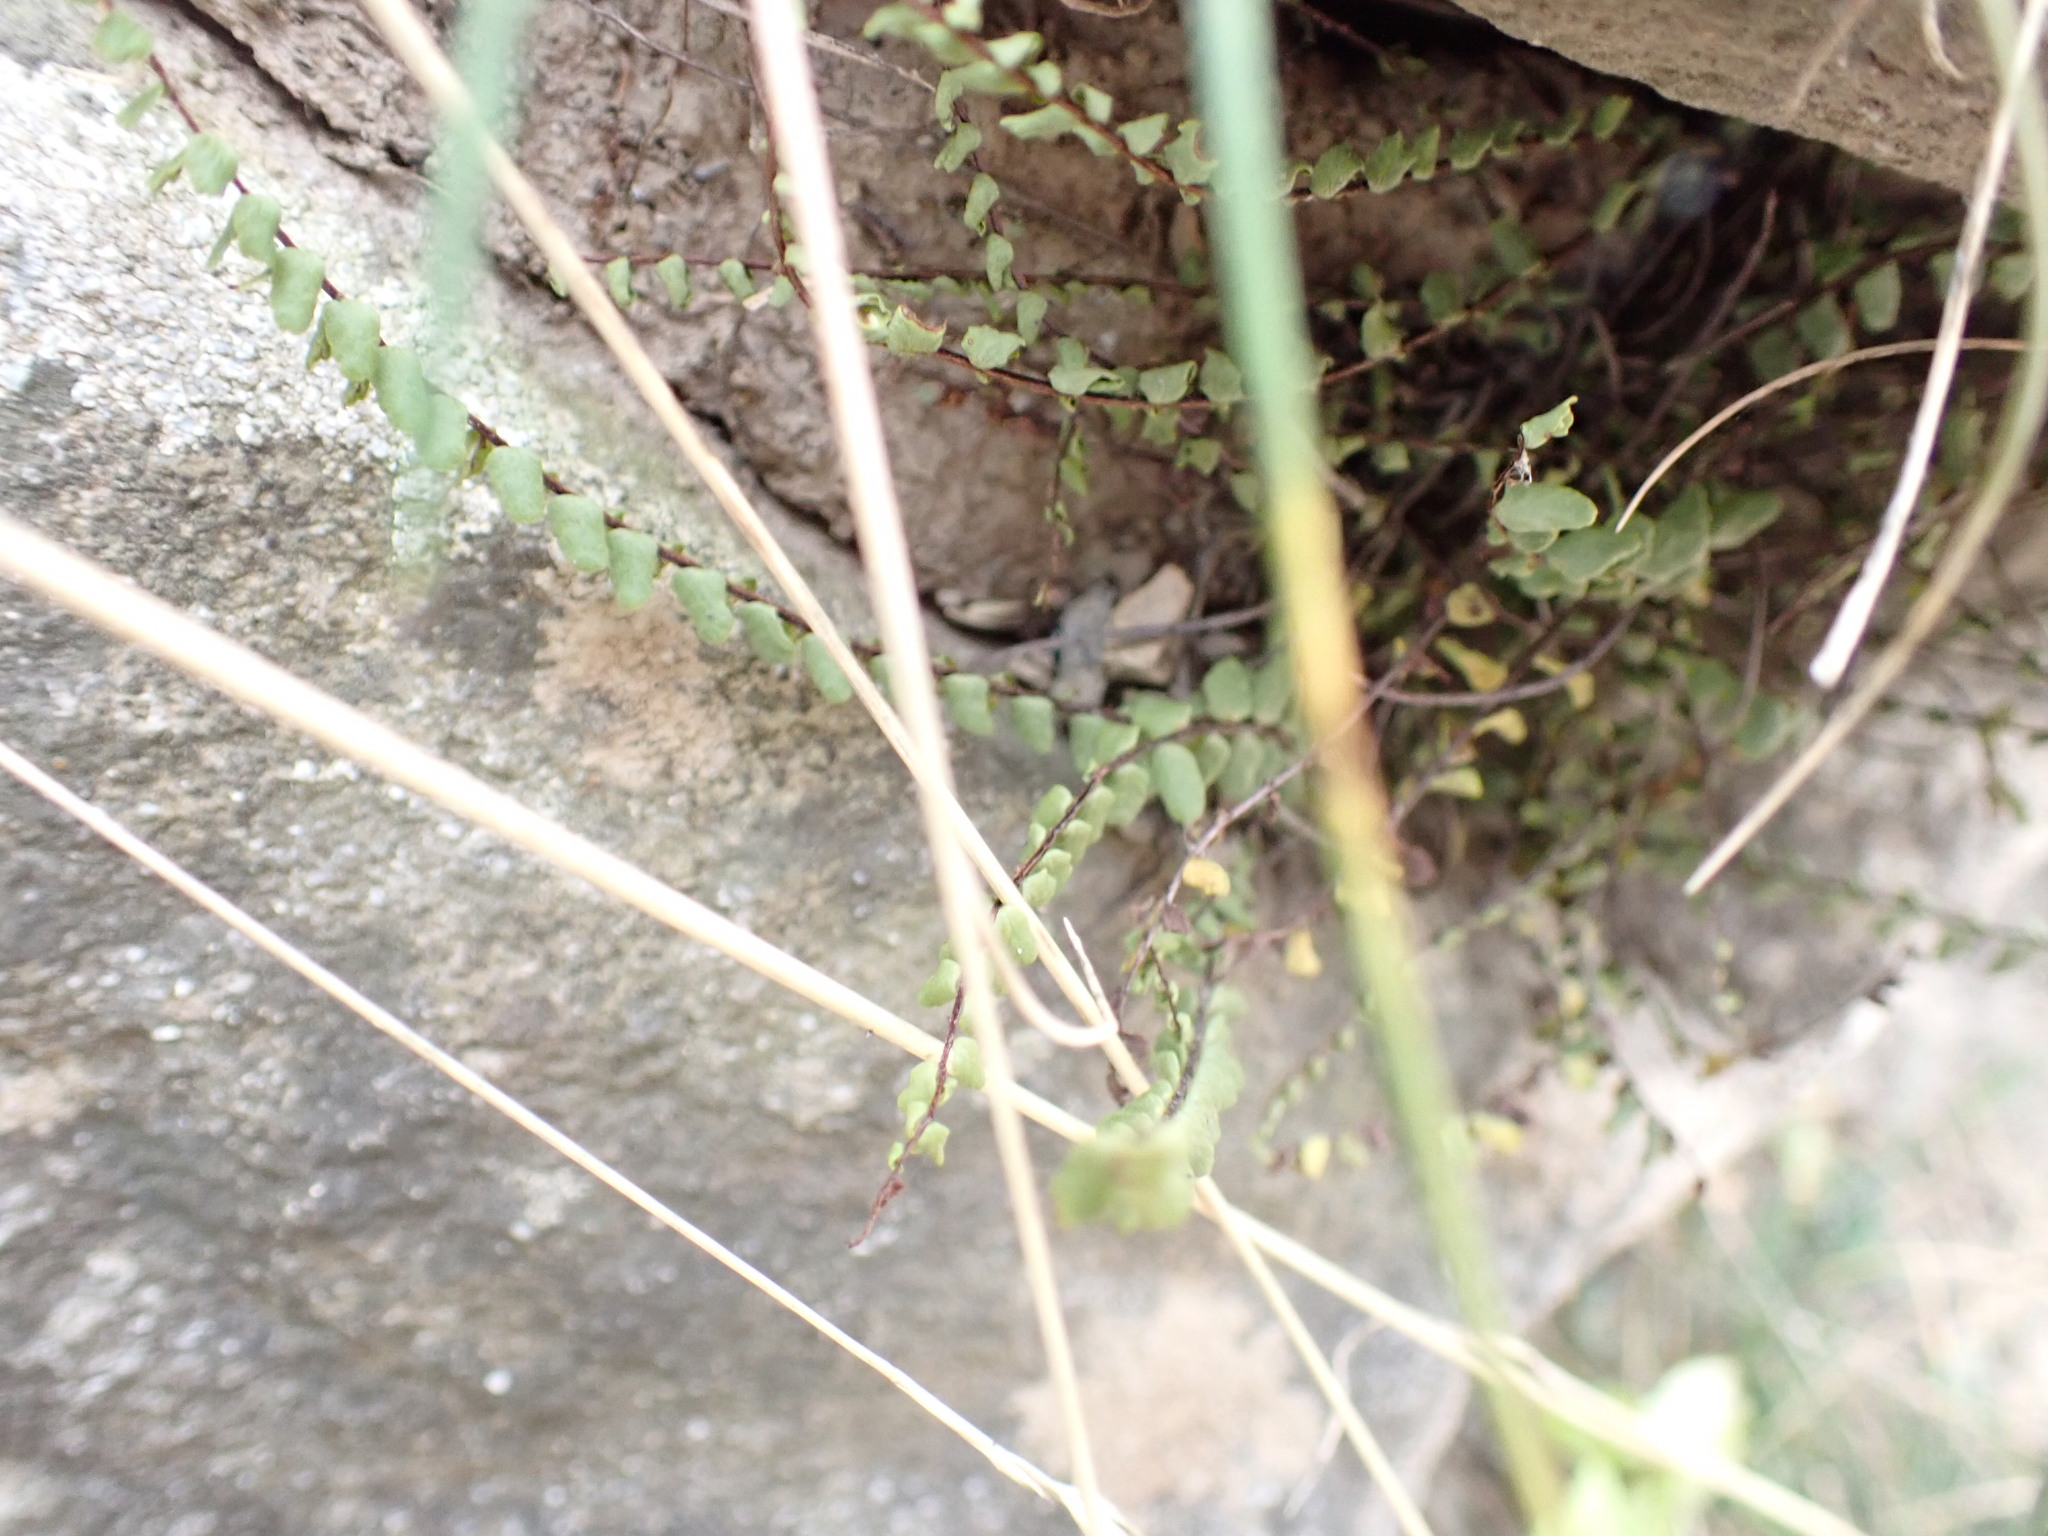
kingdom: Plantae
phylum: Tracheophyta
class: Polypodiopsida
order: Polypodiales
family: Aspleniaceae
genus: Asplenium
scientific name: Asplenium trichomanes
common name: Maidenhair spleenwort
